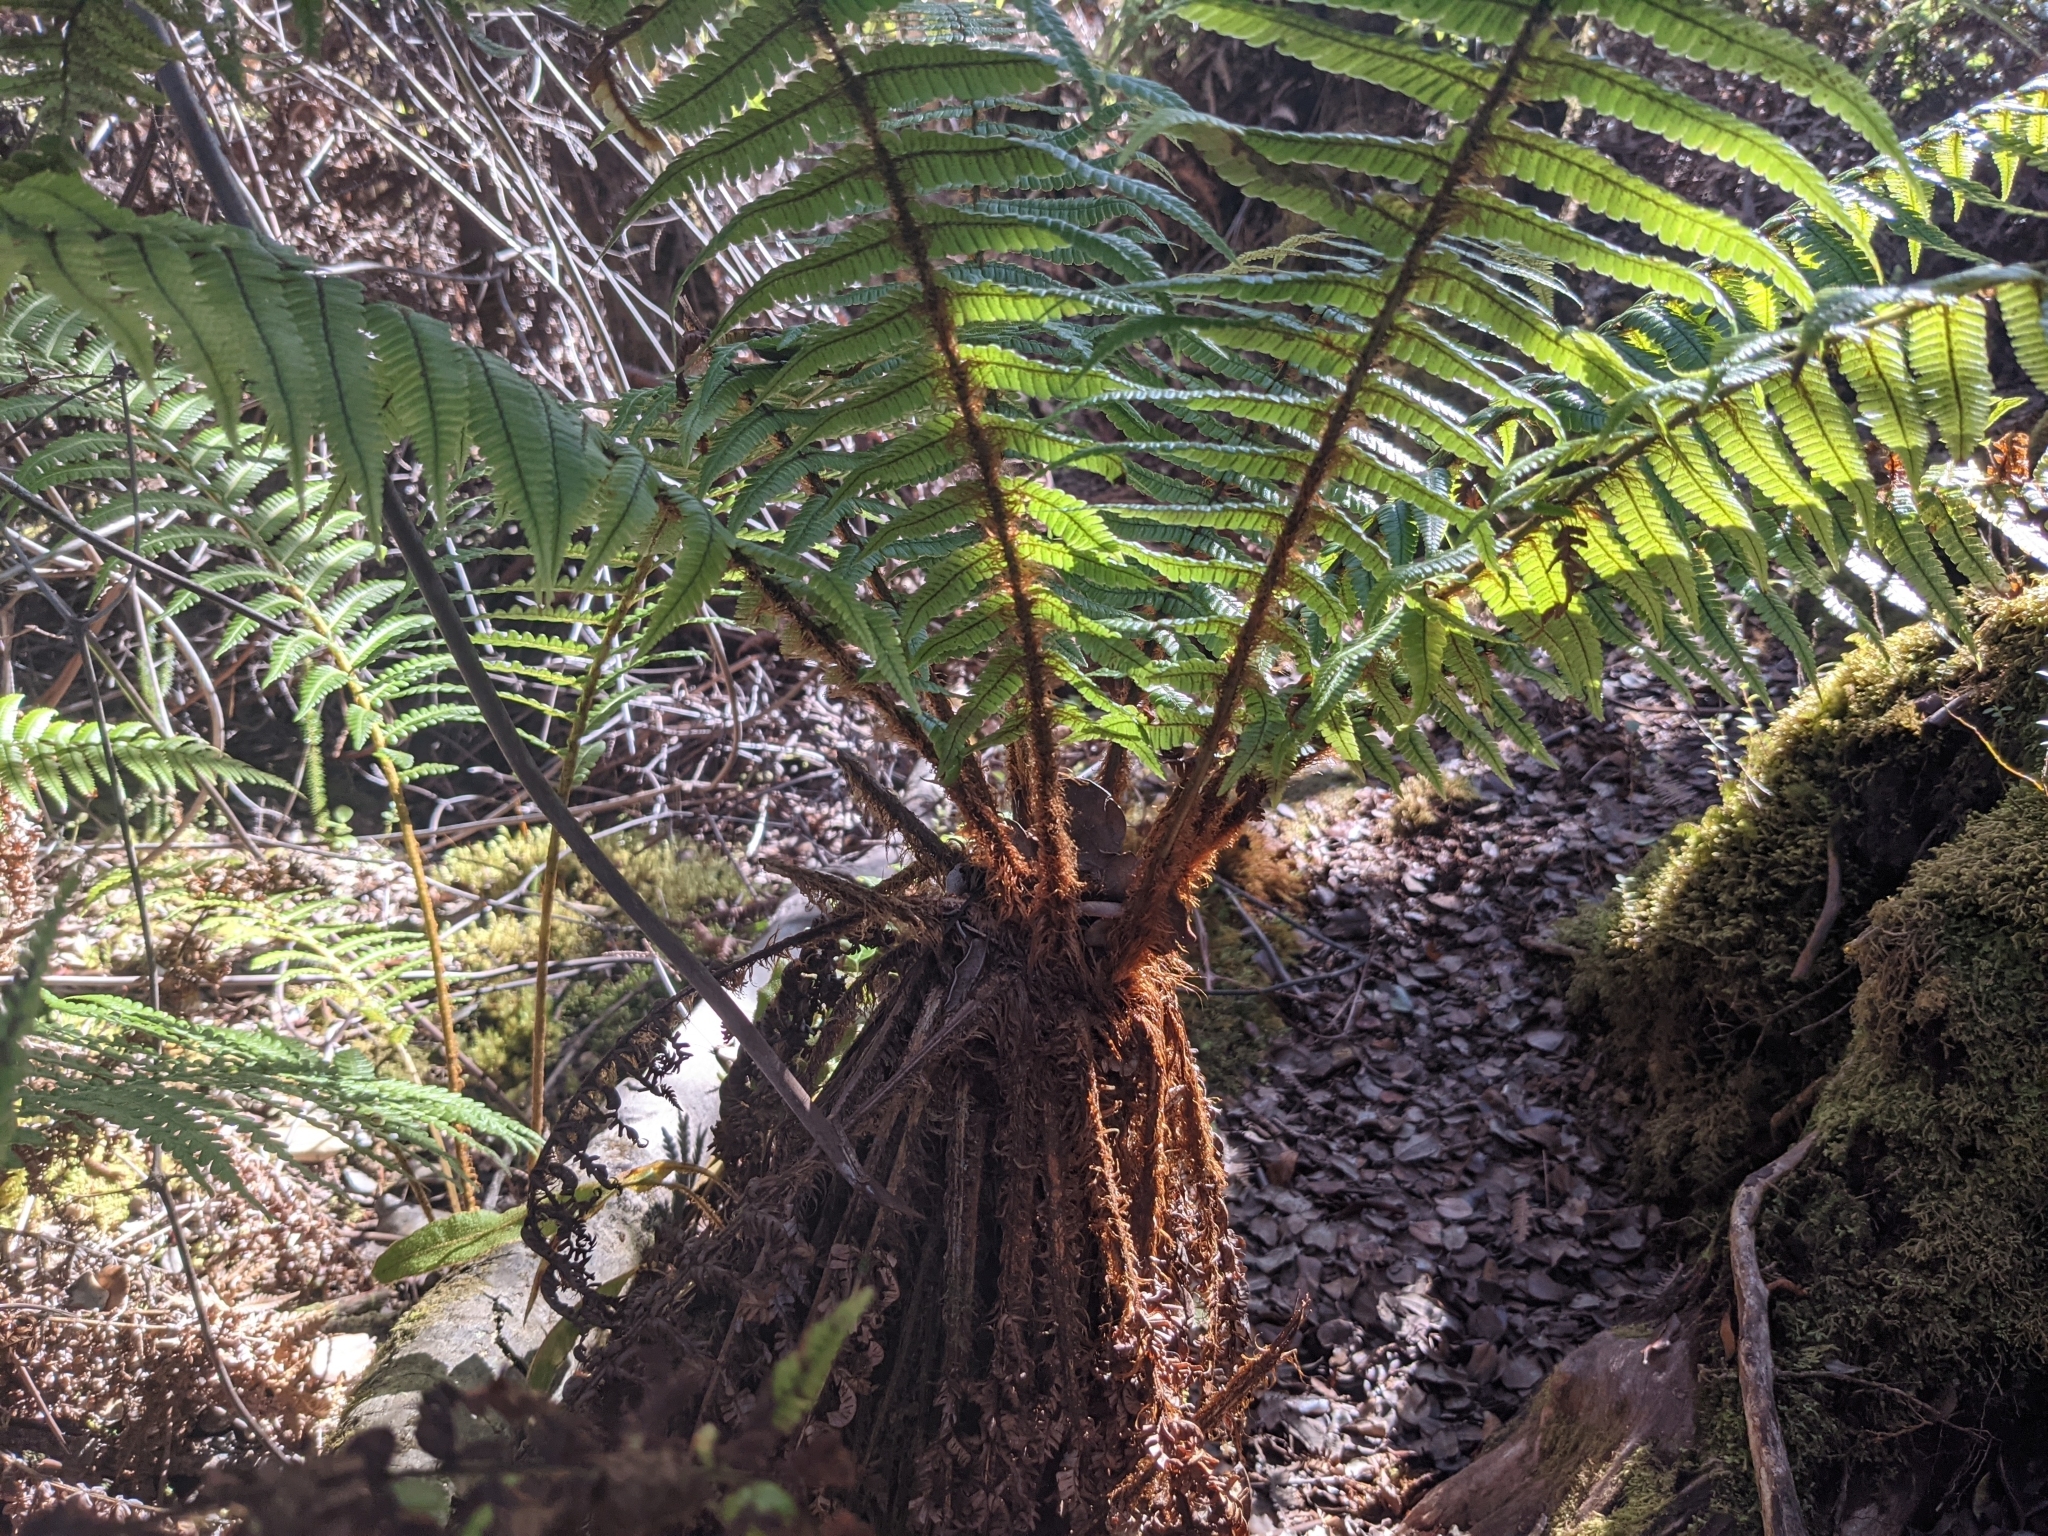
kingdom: Plantae
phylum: Tracheophyta
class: Polypodiopsida
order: Polypodiales
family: Dryopteridaceae
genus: Dryopteris
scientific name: Dryopteris wallichiana
